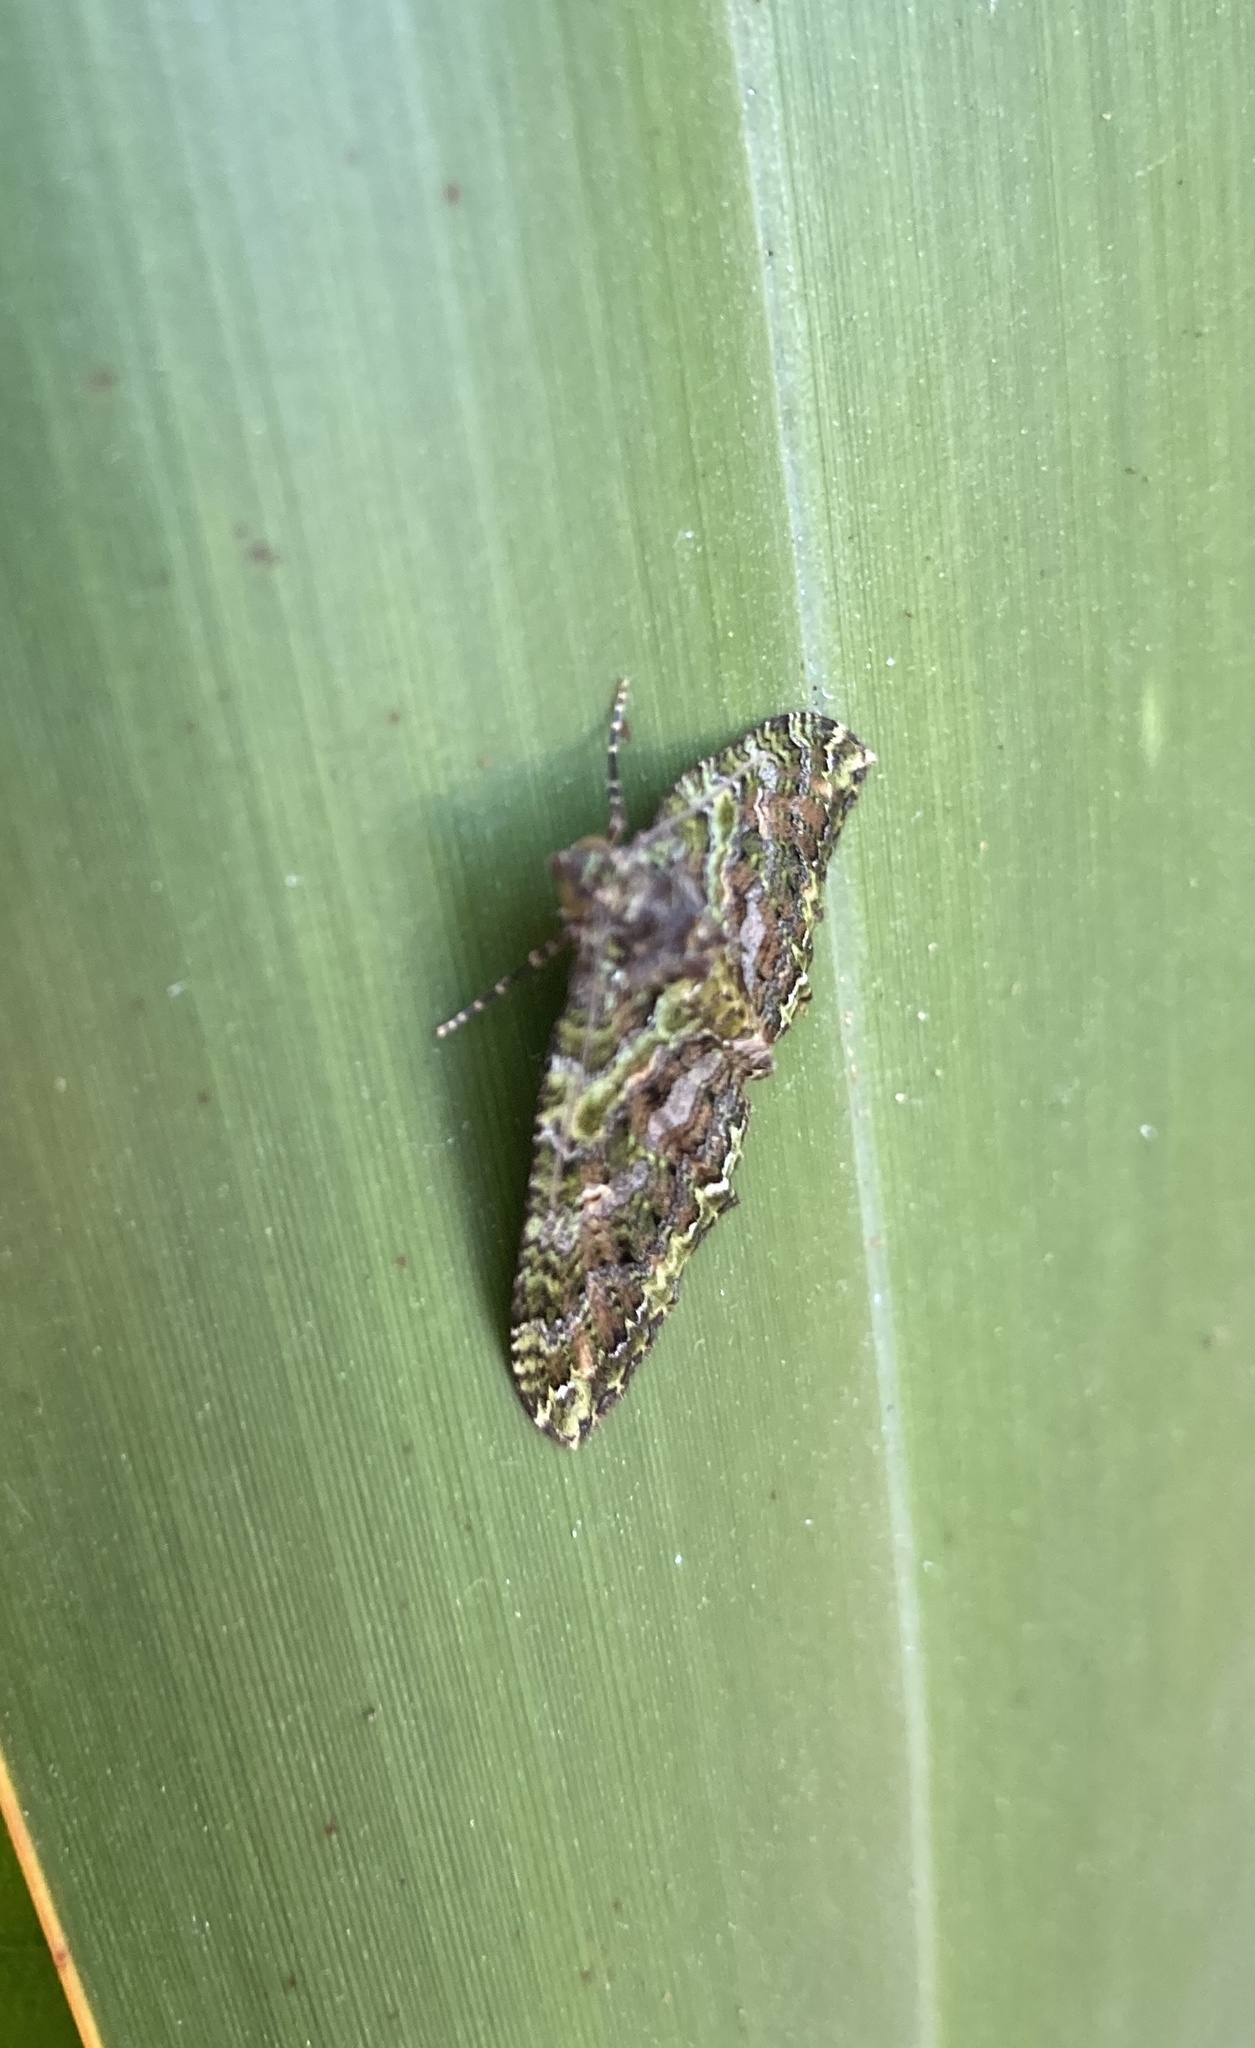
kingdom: Animalia
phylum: Arthropoda
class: Insecta
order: Lepidoptera
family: Geometridae
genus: Austrocidaria
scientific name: Austrocidaria similata
